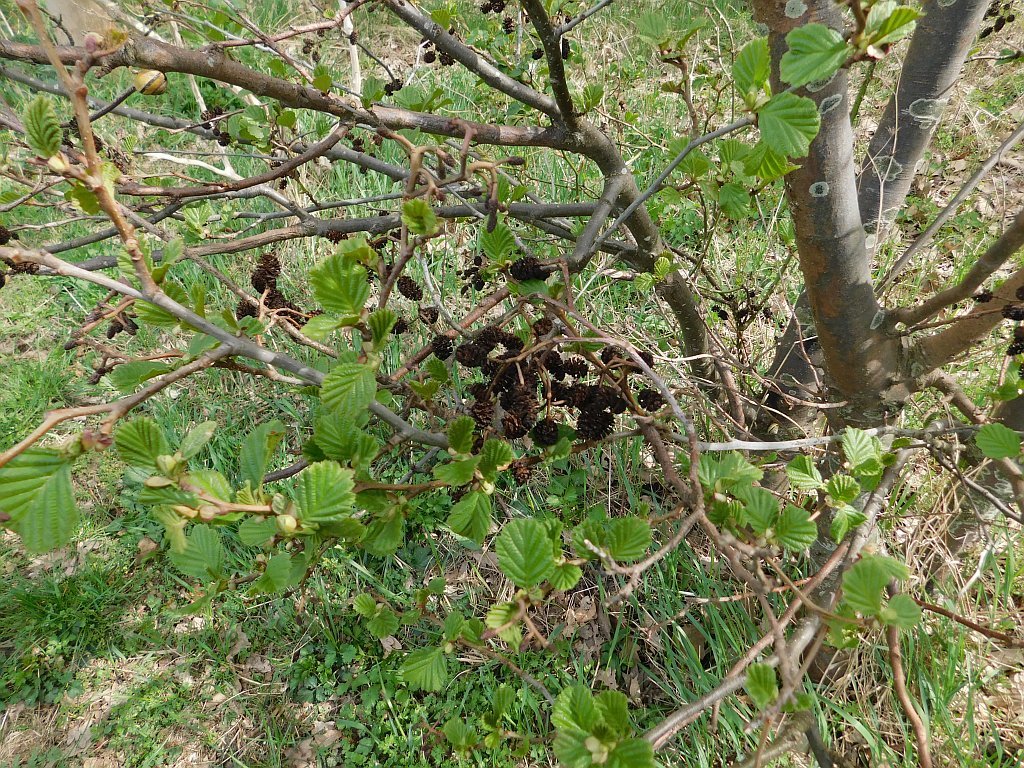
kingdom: Plantae
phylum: Tracheophyta
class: Magnoliopsida
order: Fagales
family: Betulaceae
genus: Alnus
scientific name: Alnus glutinosa
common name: Black alder
